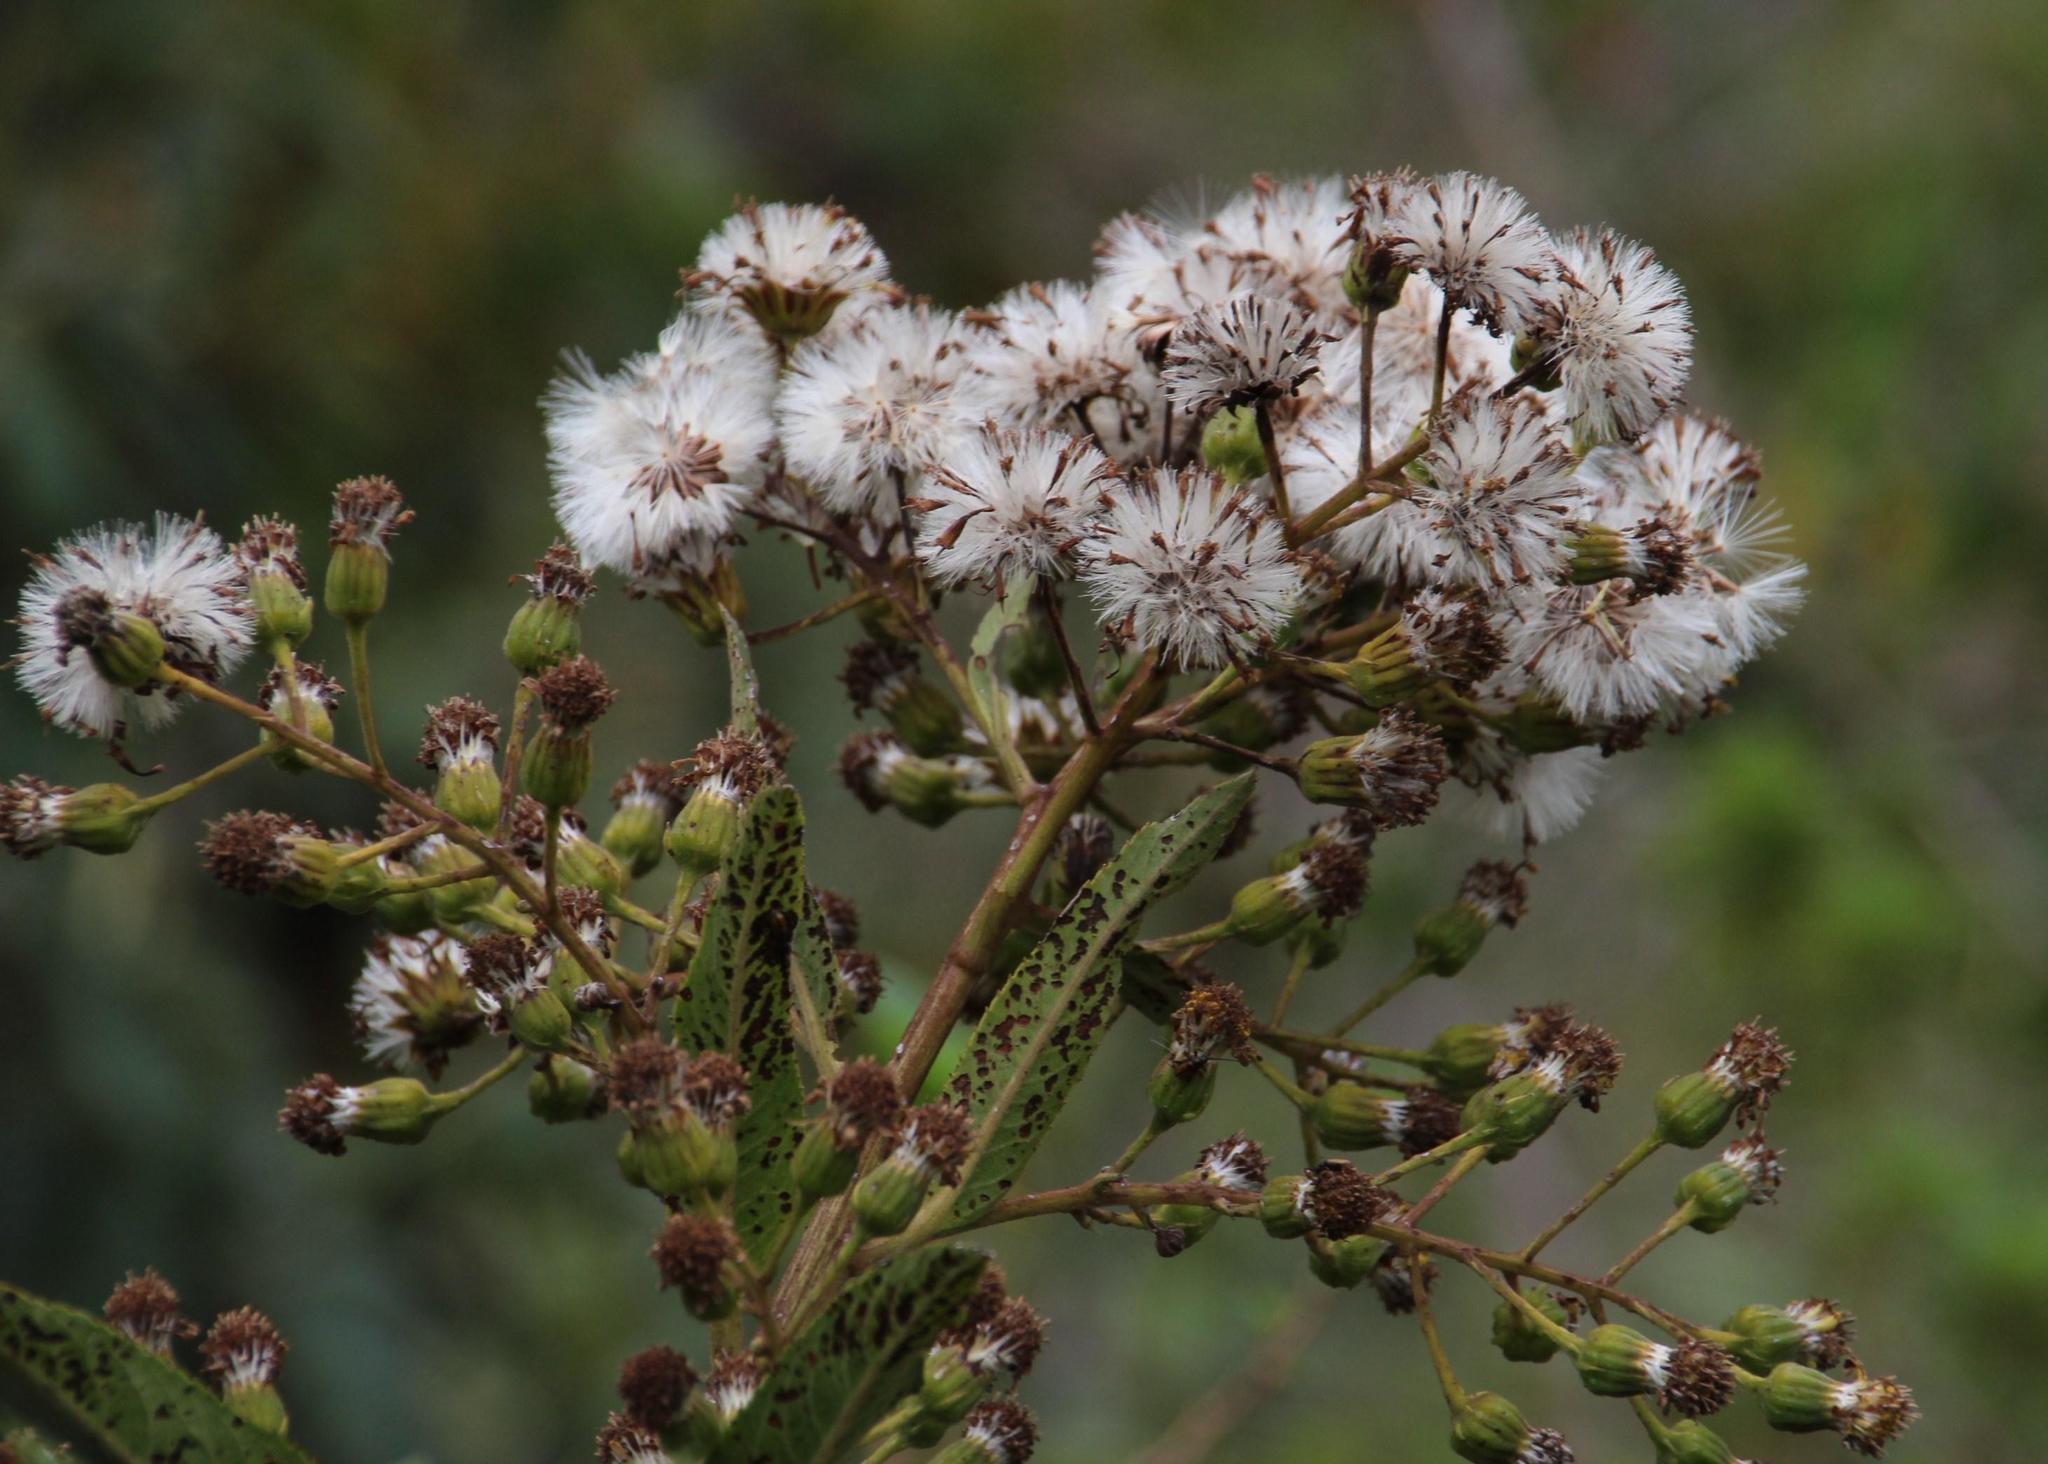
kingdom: Plantae
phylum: Tracheophyta
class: Magnoliopsida
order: Asterales
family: Asteraceae
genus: Dendrophorbium
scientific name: Dendrophorbium argutidentatum
